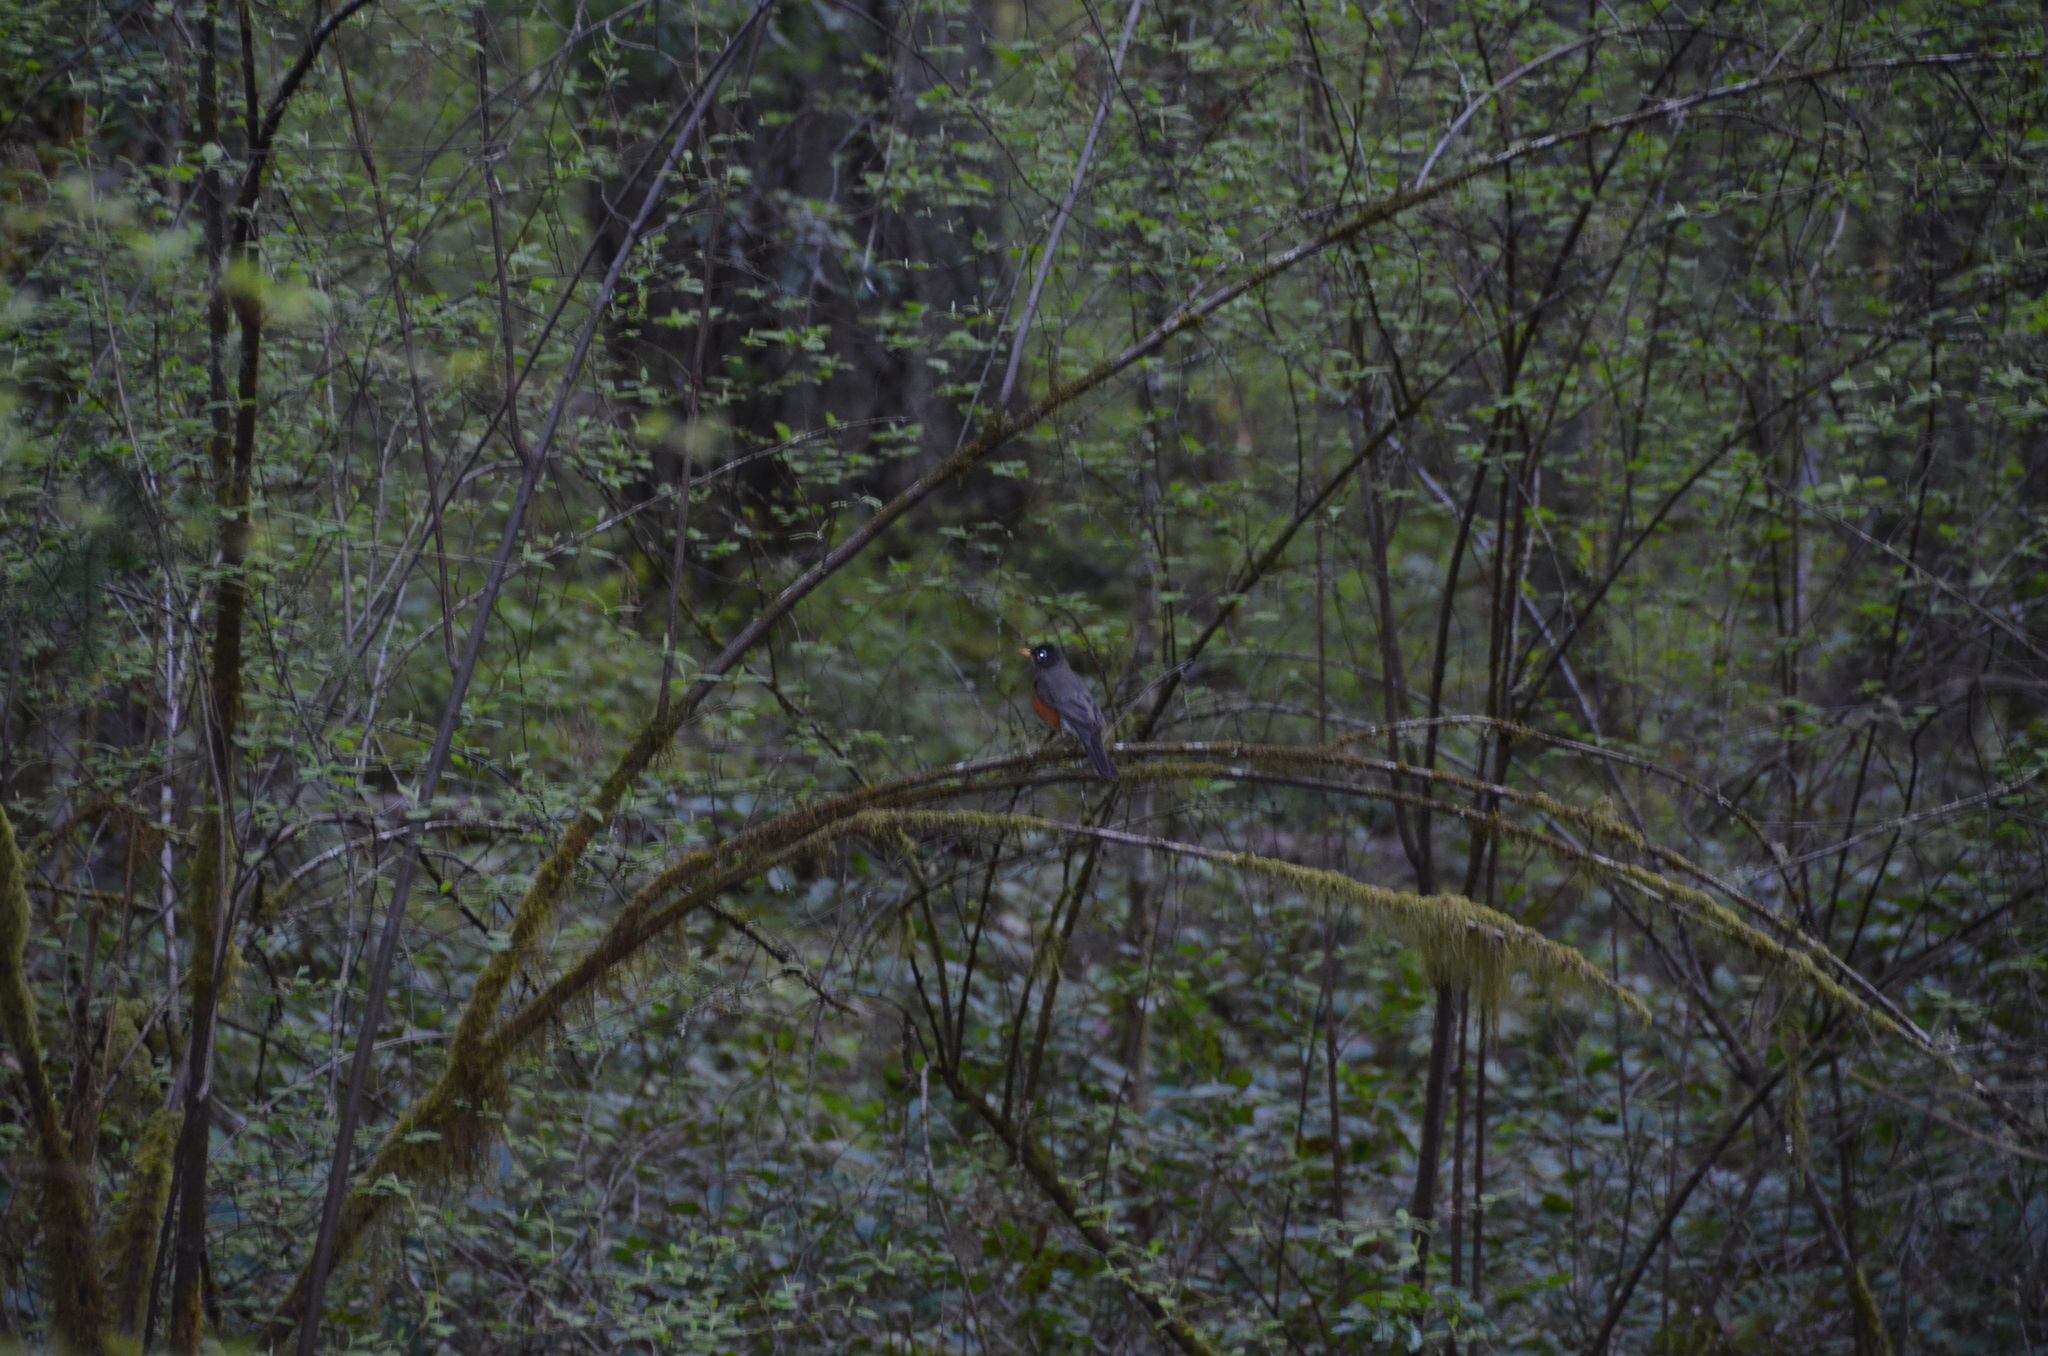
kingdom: Animalia
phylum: Chordata
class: Aves
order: Passeriformes
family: Turdidae
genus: Turdus
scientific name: Turdus migratorius
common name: American robin
